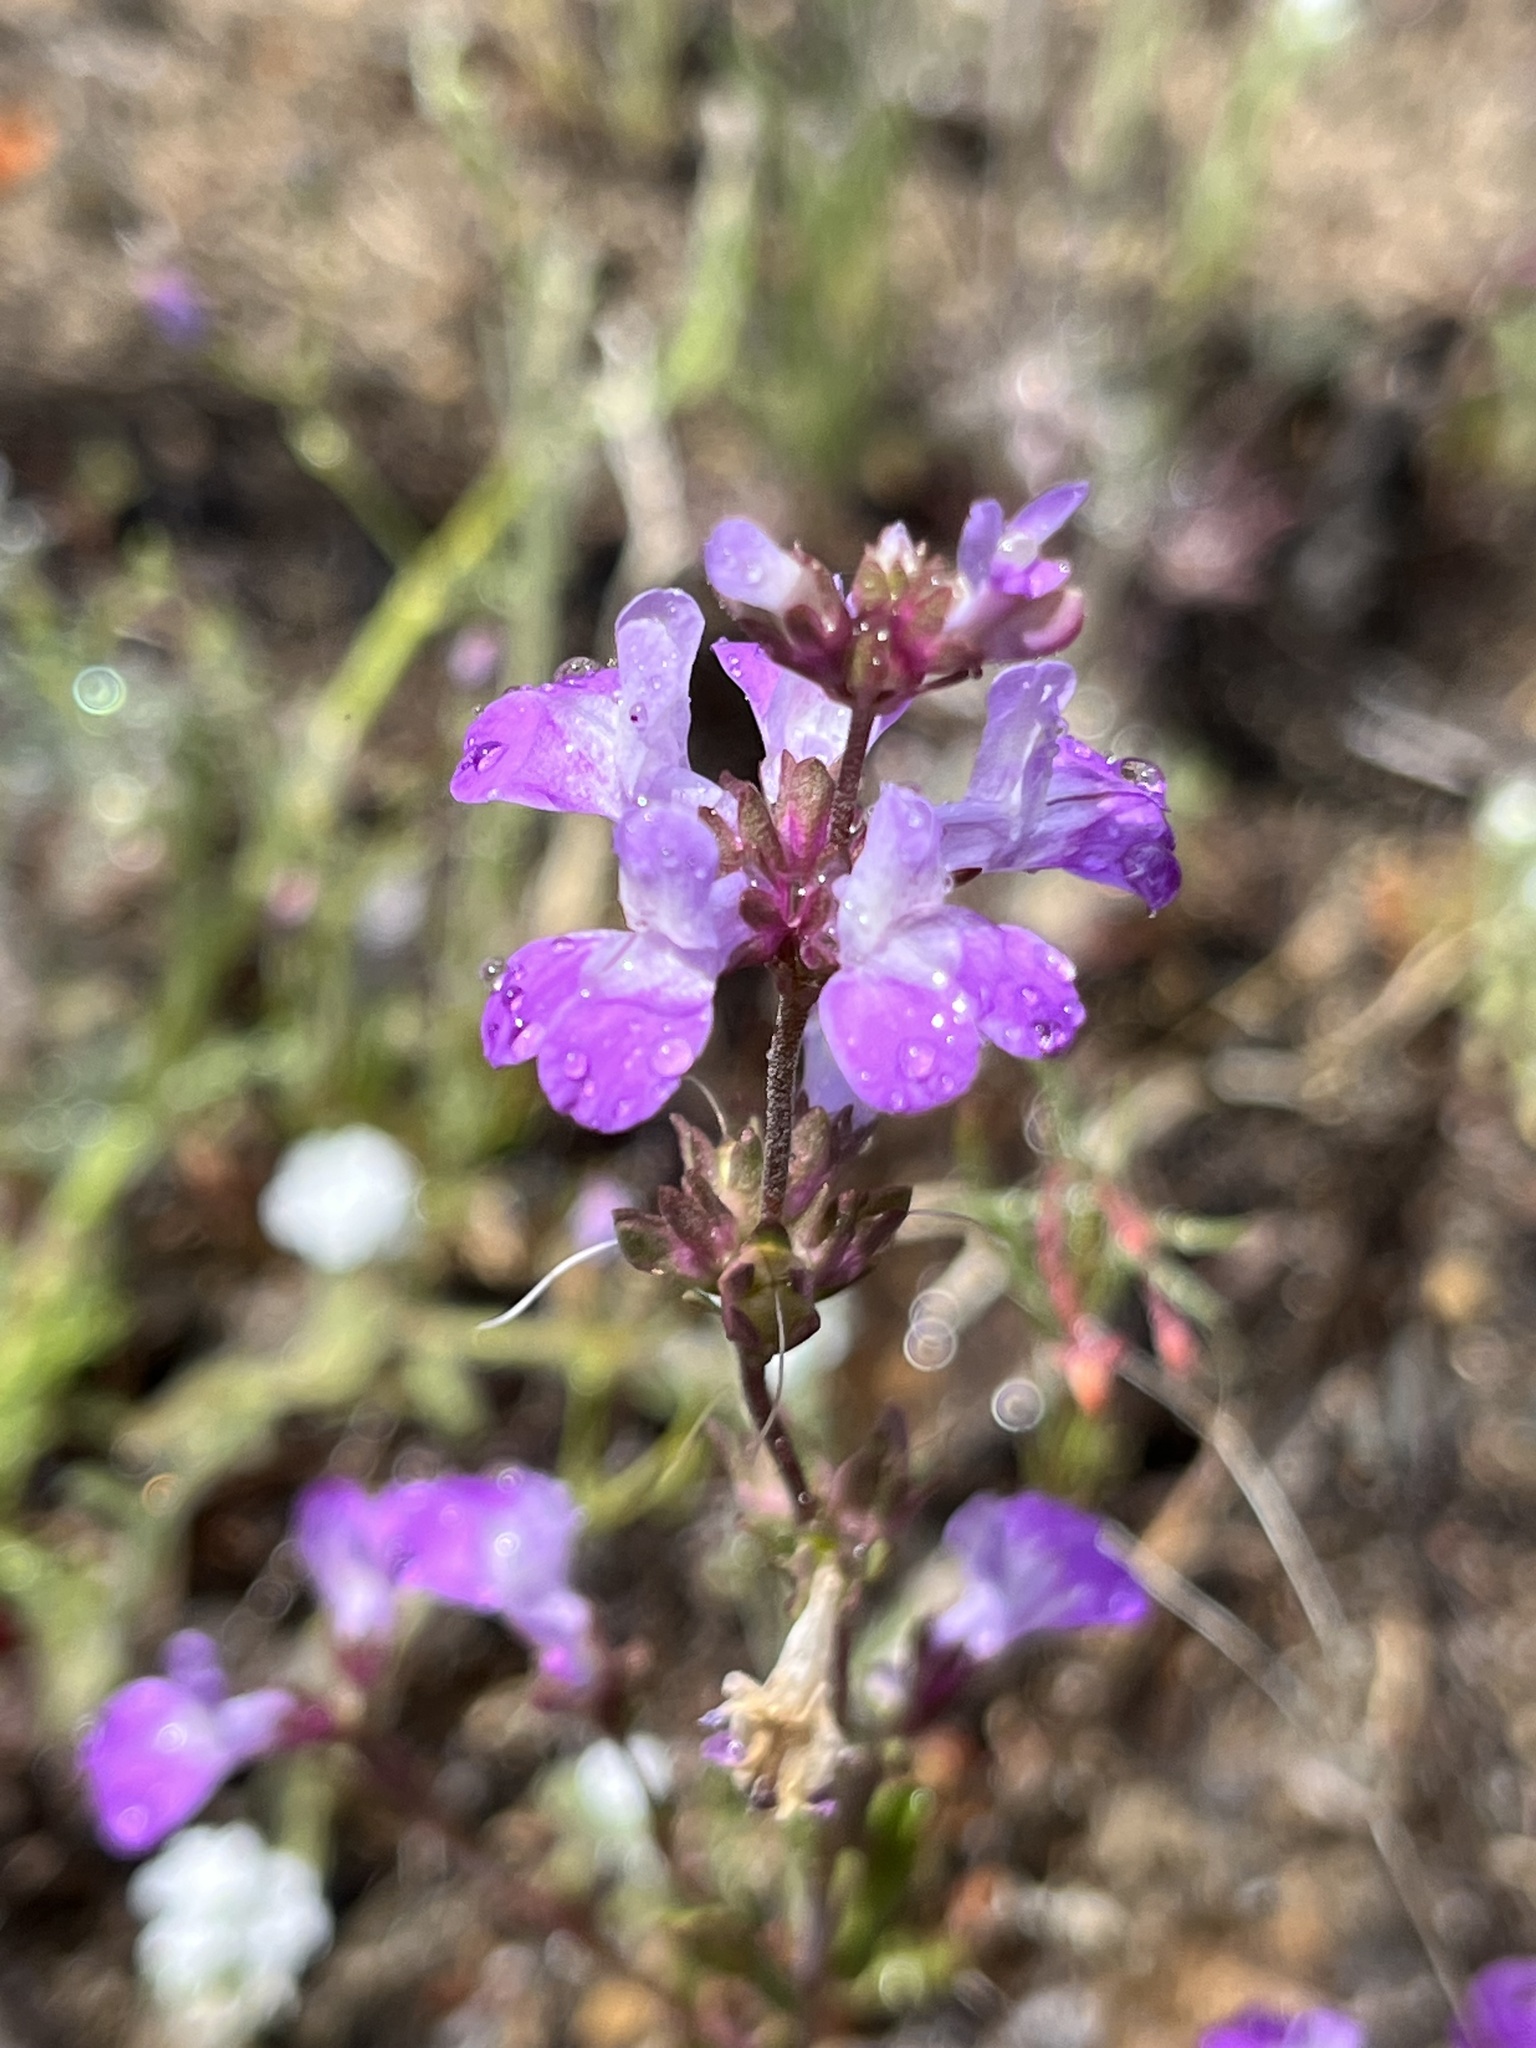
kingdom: Plantae
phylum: Tracheophyta
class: Magnoliopsida
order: Lamiales
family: Plantaginaceae
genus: Collinsia
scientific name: Collinsia heterophylla
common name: Chinese-houses
